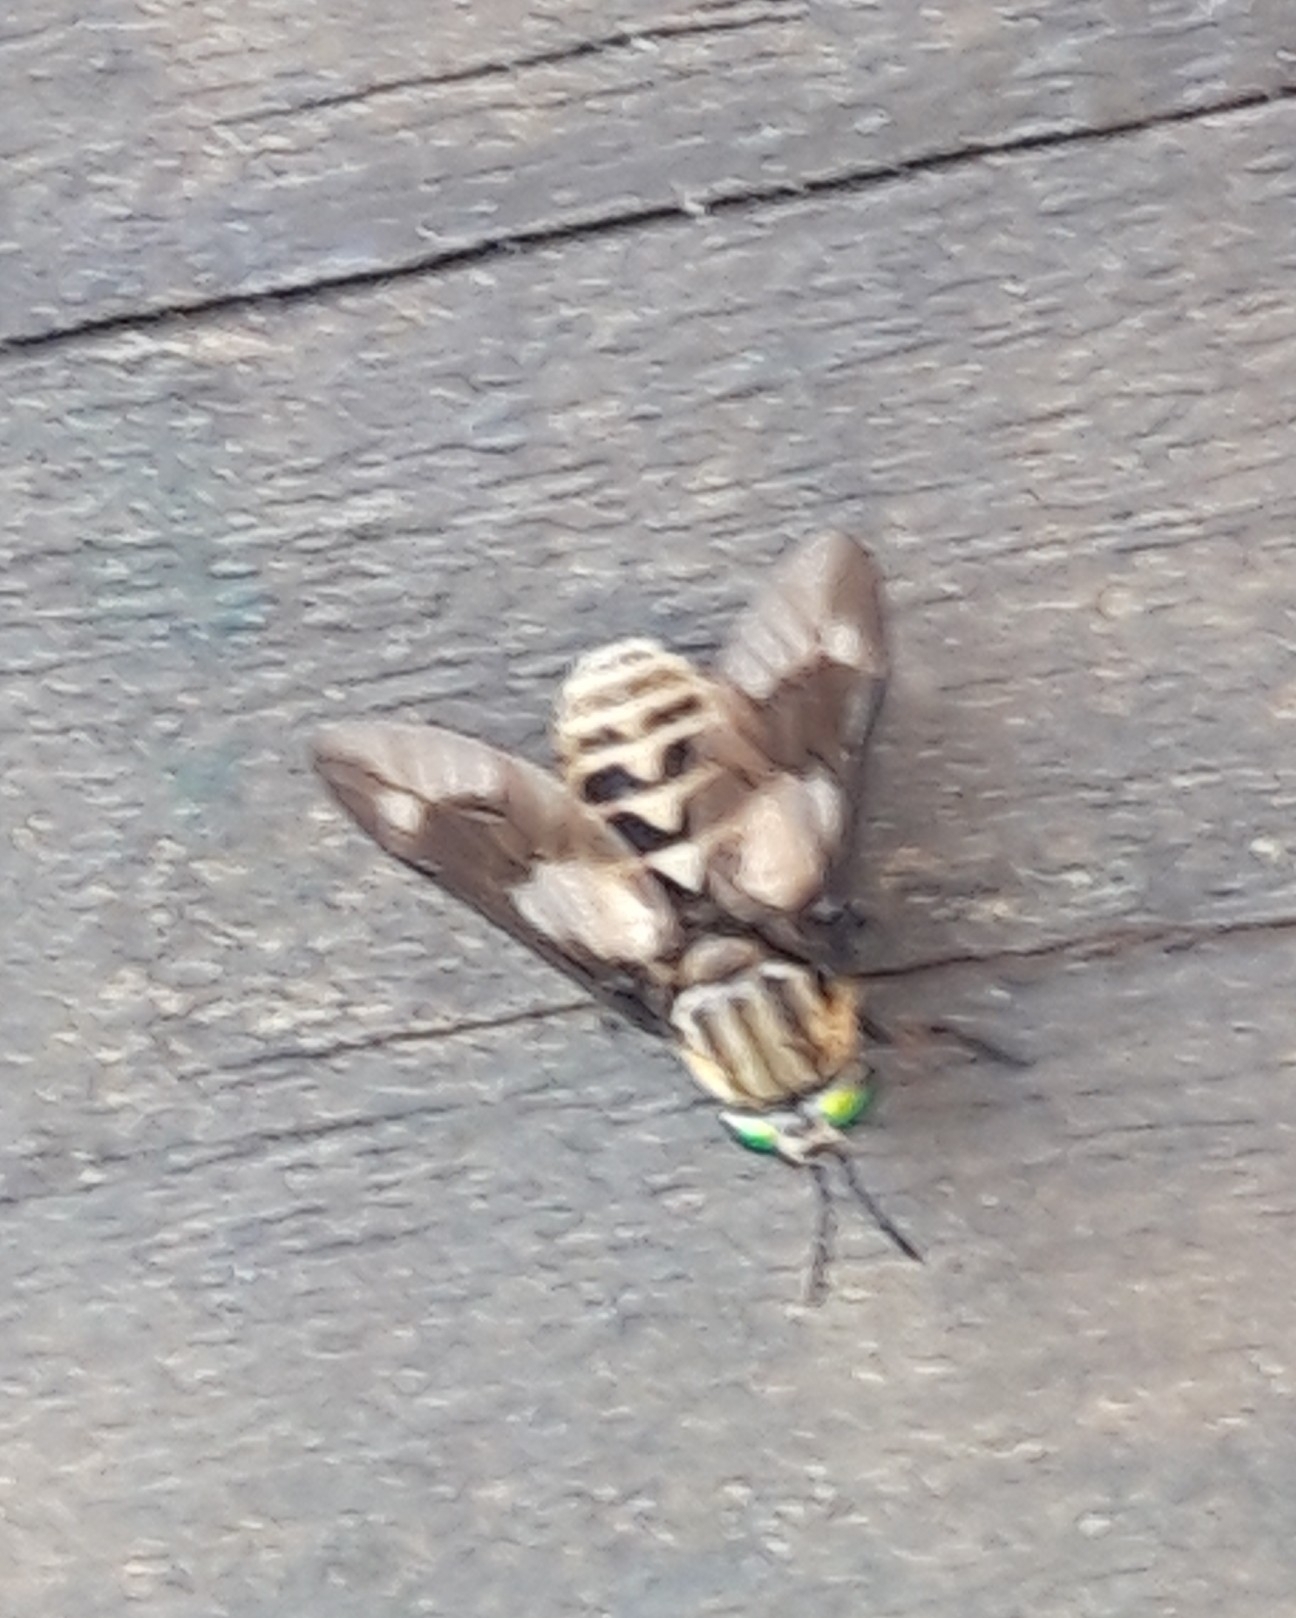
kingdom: Animalia
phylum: Arthropoda
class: Insecta
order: Diptera
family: Tabanidae
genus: Chrysops
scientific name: Chrysops relictus
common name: Twin-lobed deerfly
